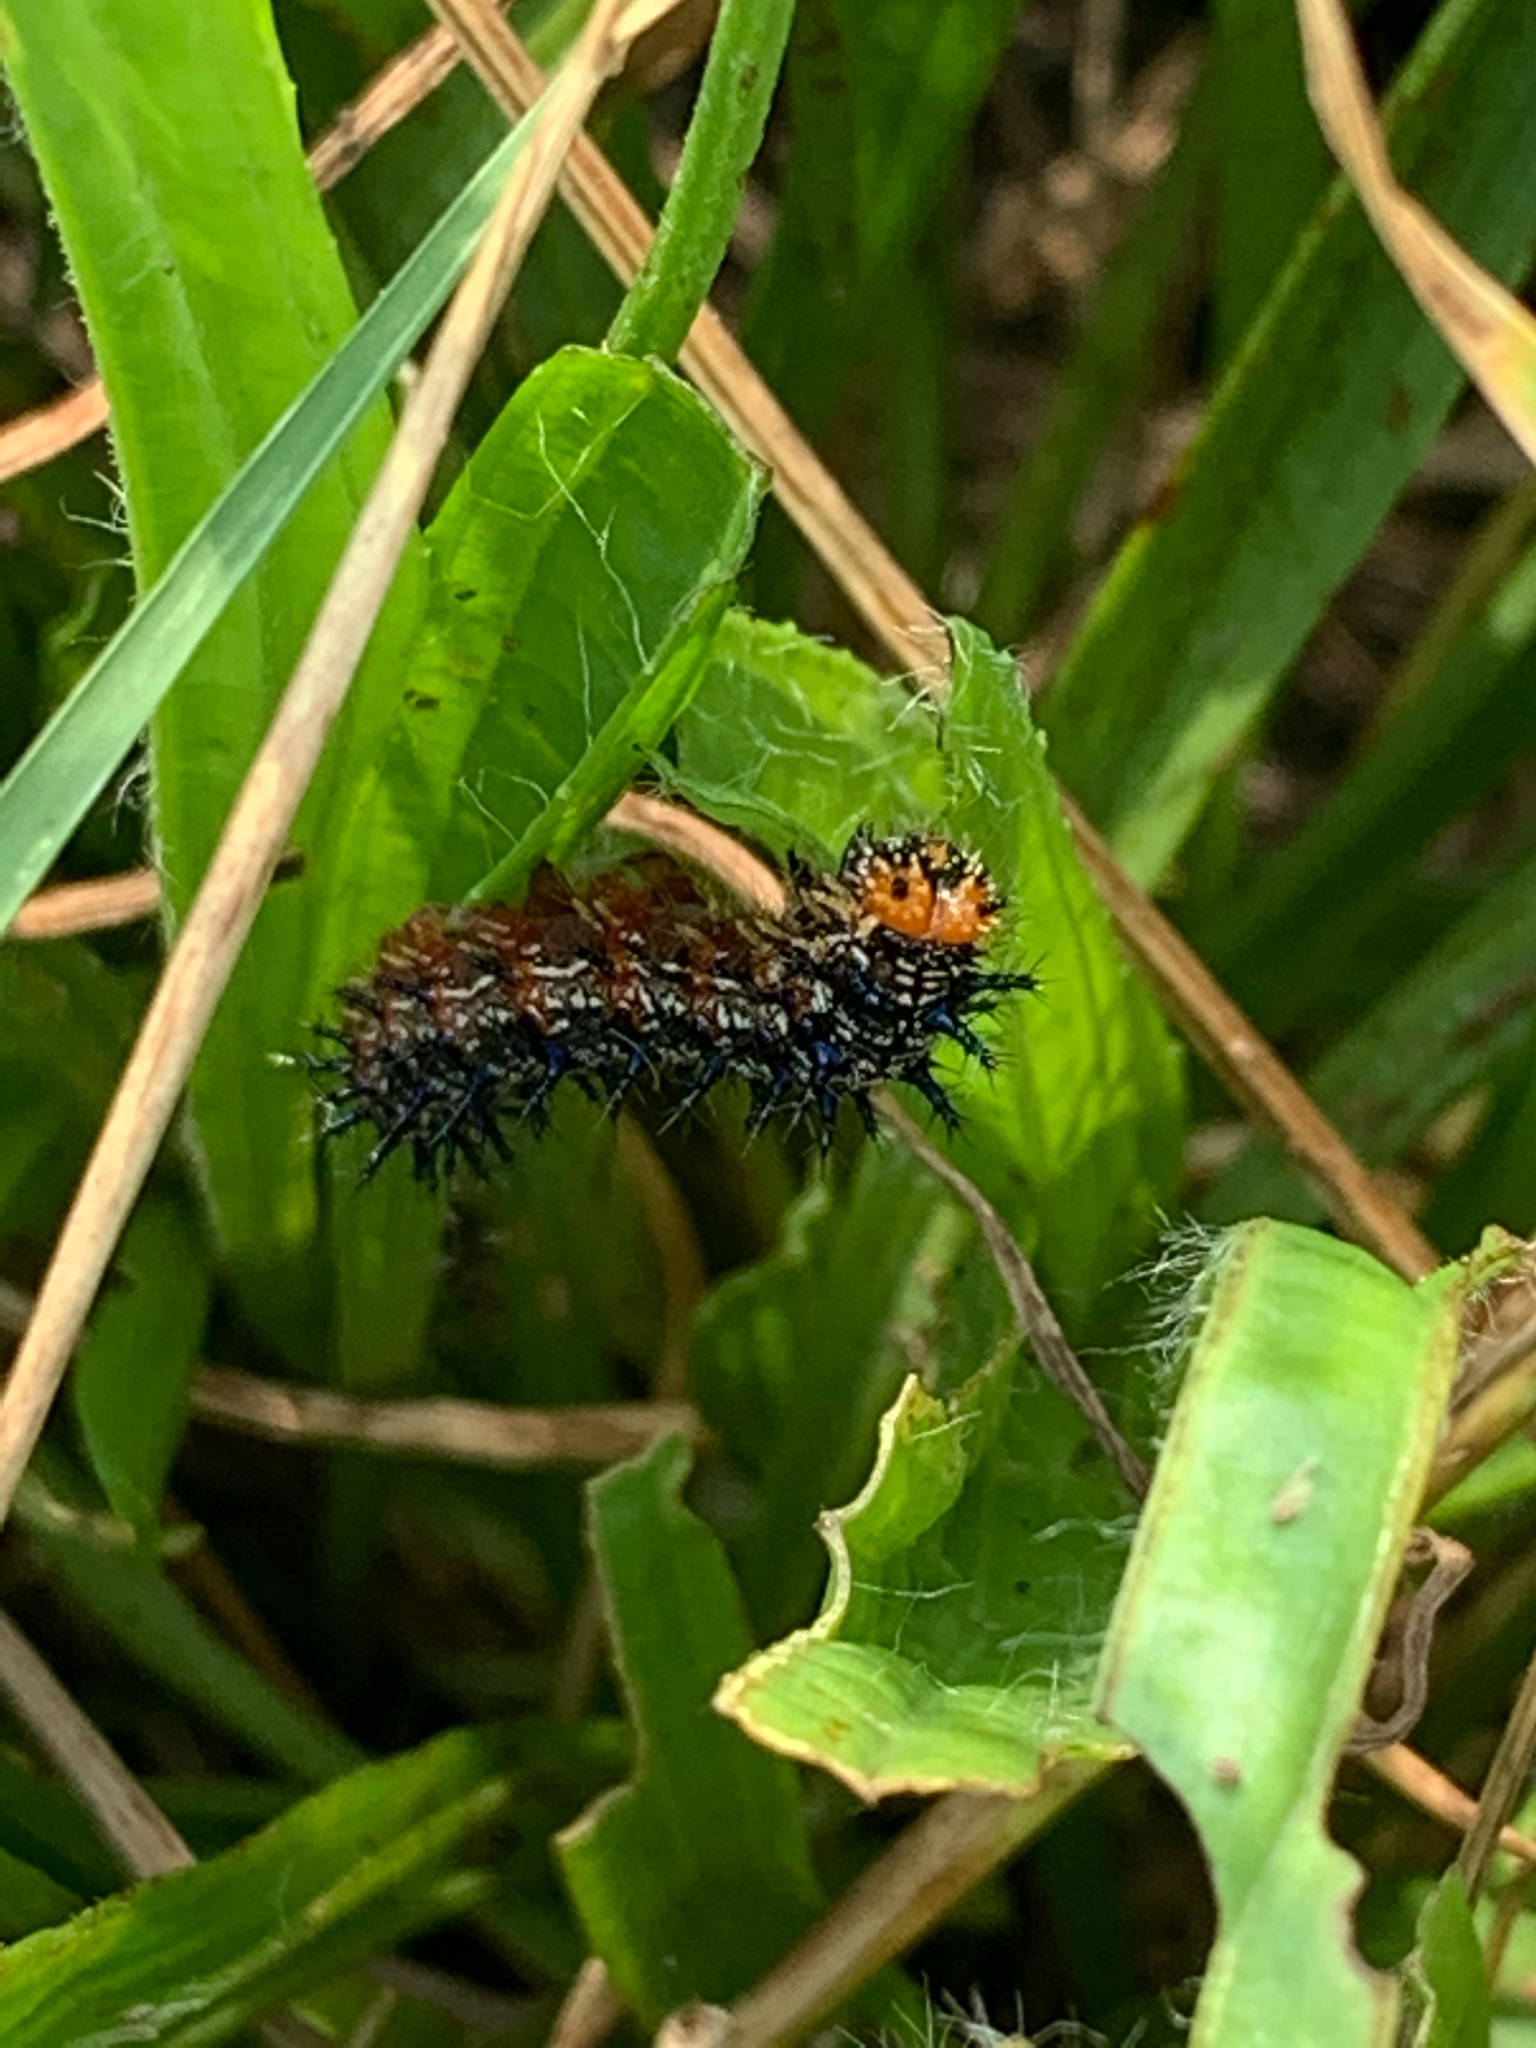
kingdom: Animalia
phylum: Arthropoda
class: Insecta
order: Lepidoptera
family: Nymphalidae
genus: Junonia
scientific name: Junonia coenia
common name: Common buckeye
